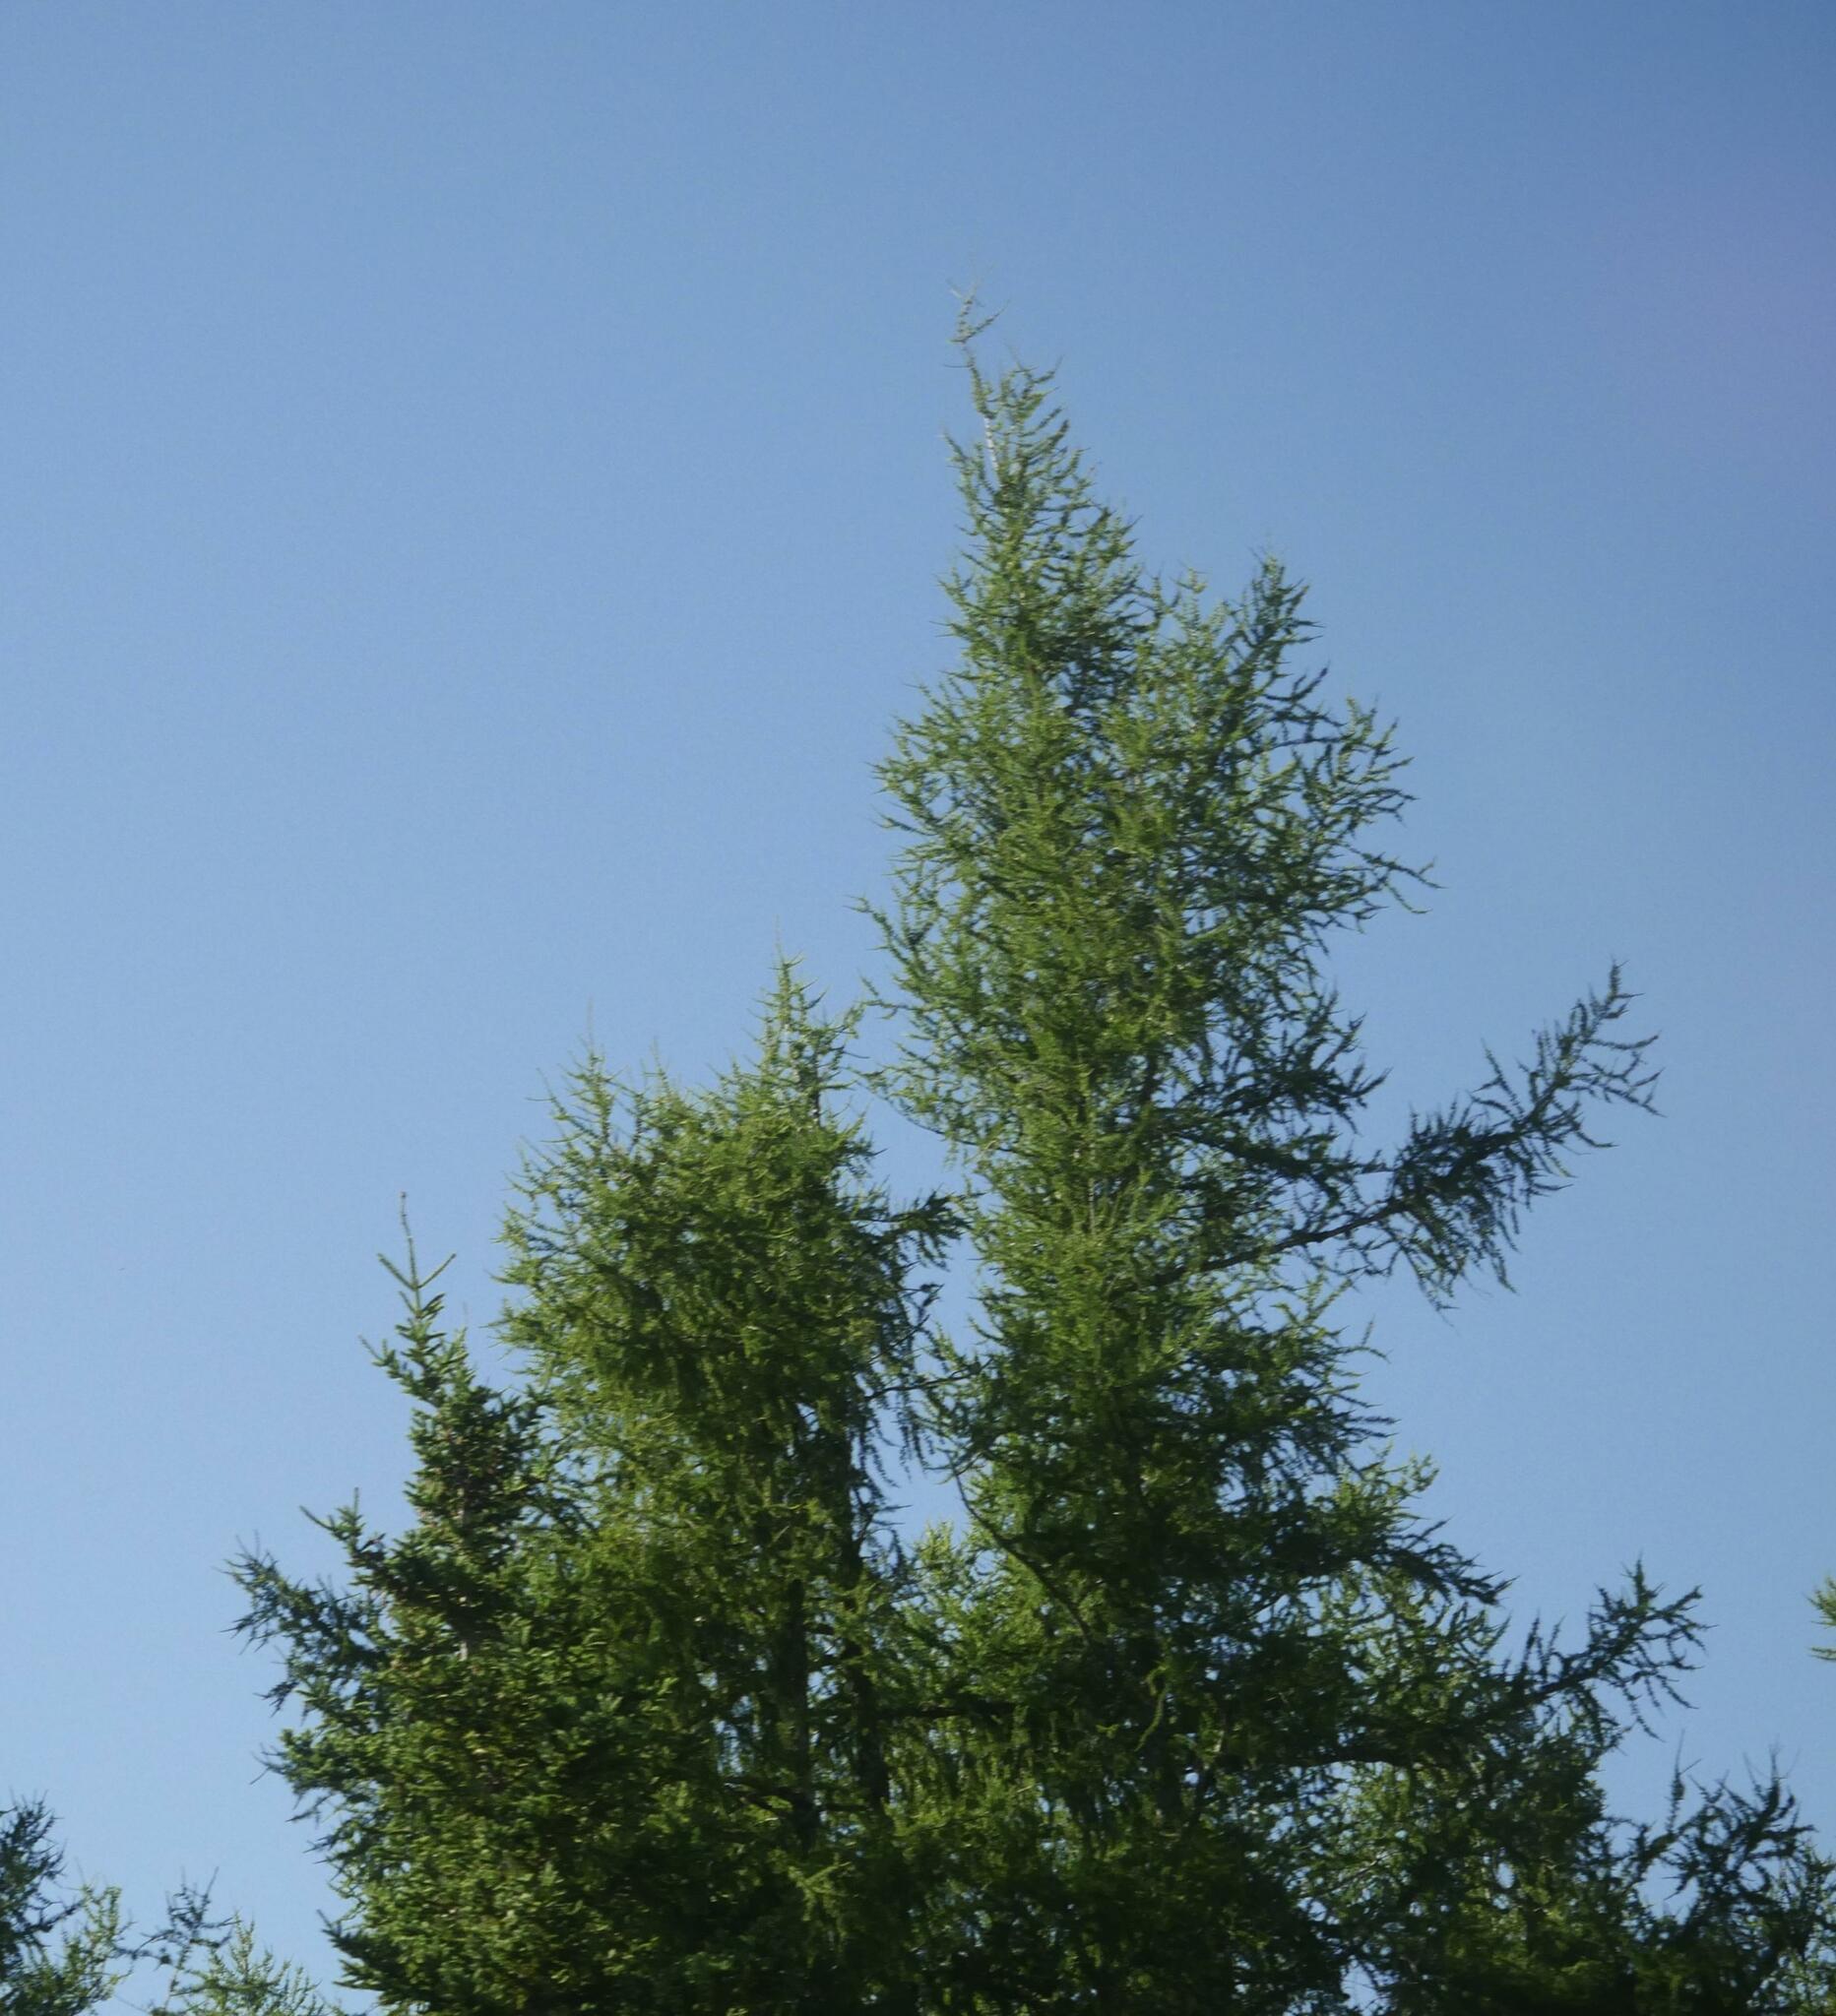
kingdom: Plantae
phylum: Tracheophyta
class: Pinopsida
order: Pinales
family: Pinaceae
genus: Larix
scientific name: Larix laricina
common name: American larch
